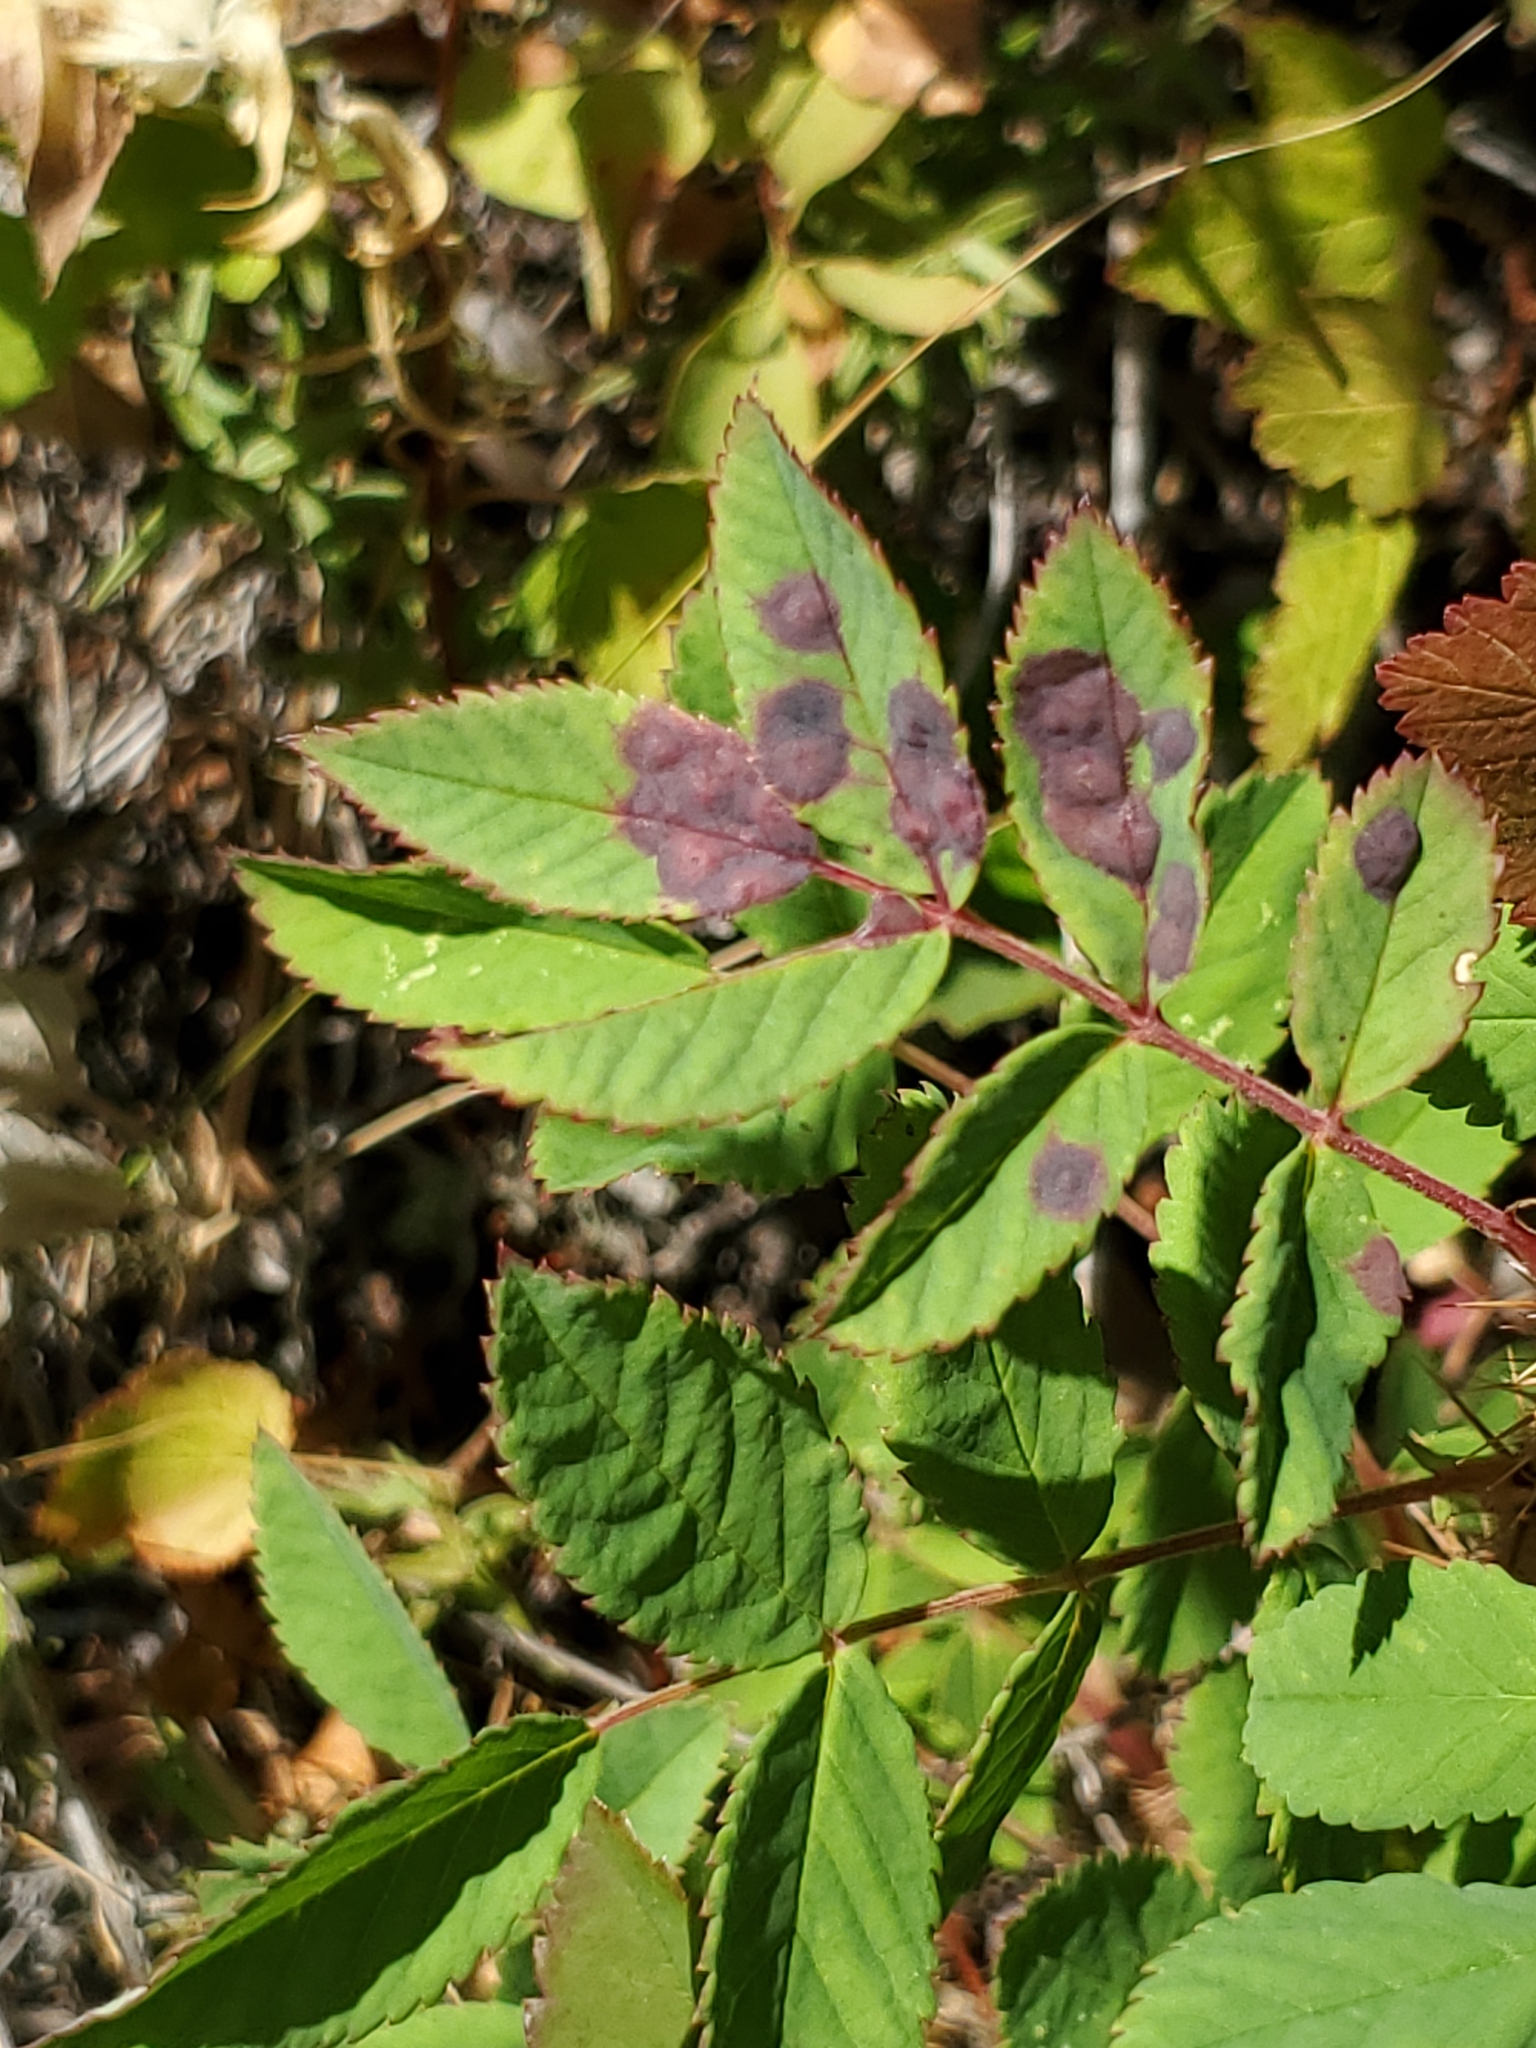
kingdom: Animalia
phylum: Arthropoda
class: Insecta
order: Hymenoptera
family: Cynipidae
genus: Diplolepis
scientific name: Diplolepis rosaefolii
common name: Blister-gall wasp
